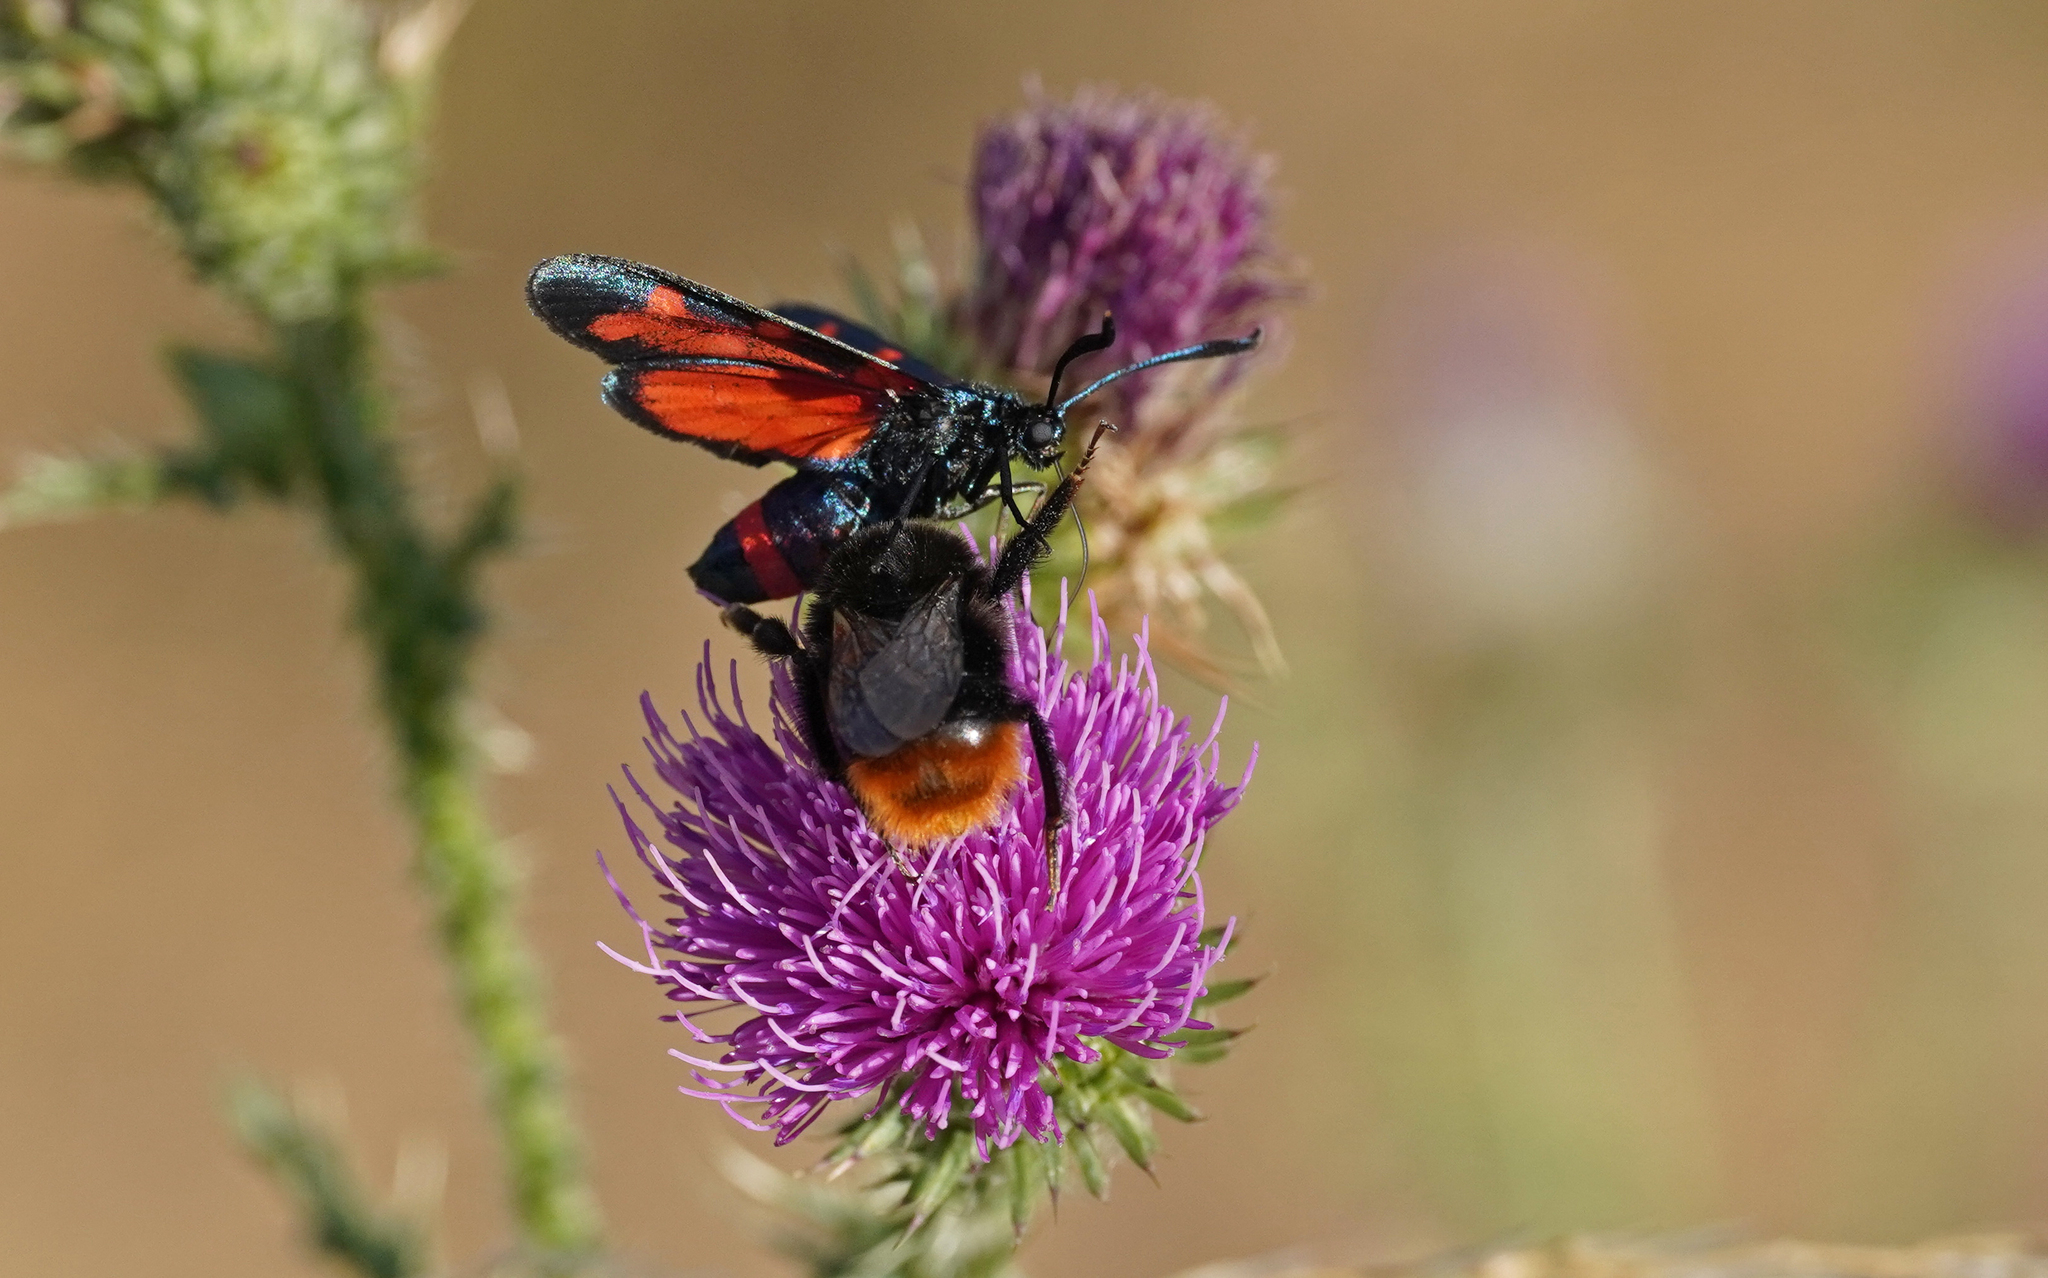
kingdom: Animalia
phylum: Arthropoda
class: Insecta
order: Lepidoptera
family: Zygaenidae
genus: Zygaena
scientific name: Zygaena ephialtes
